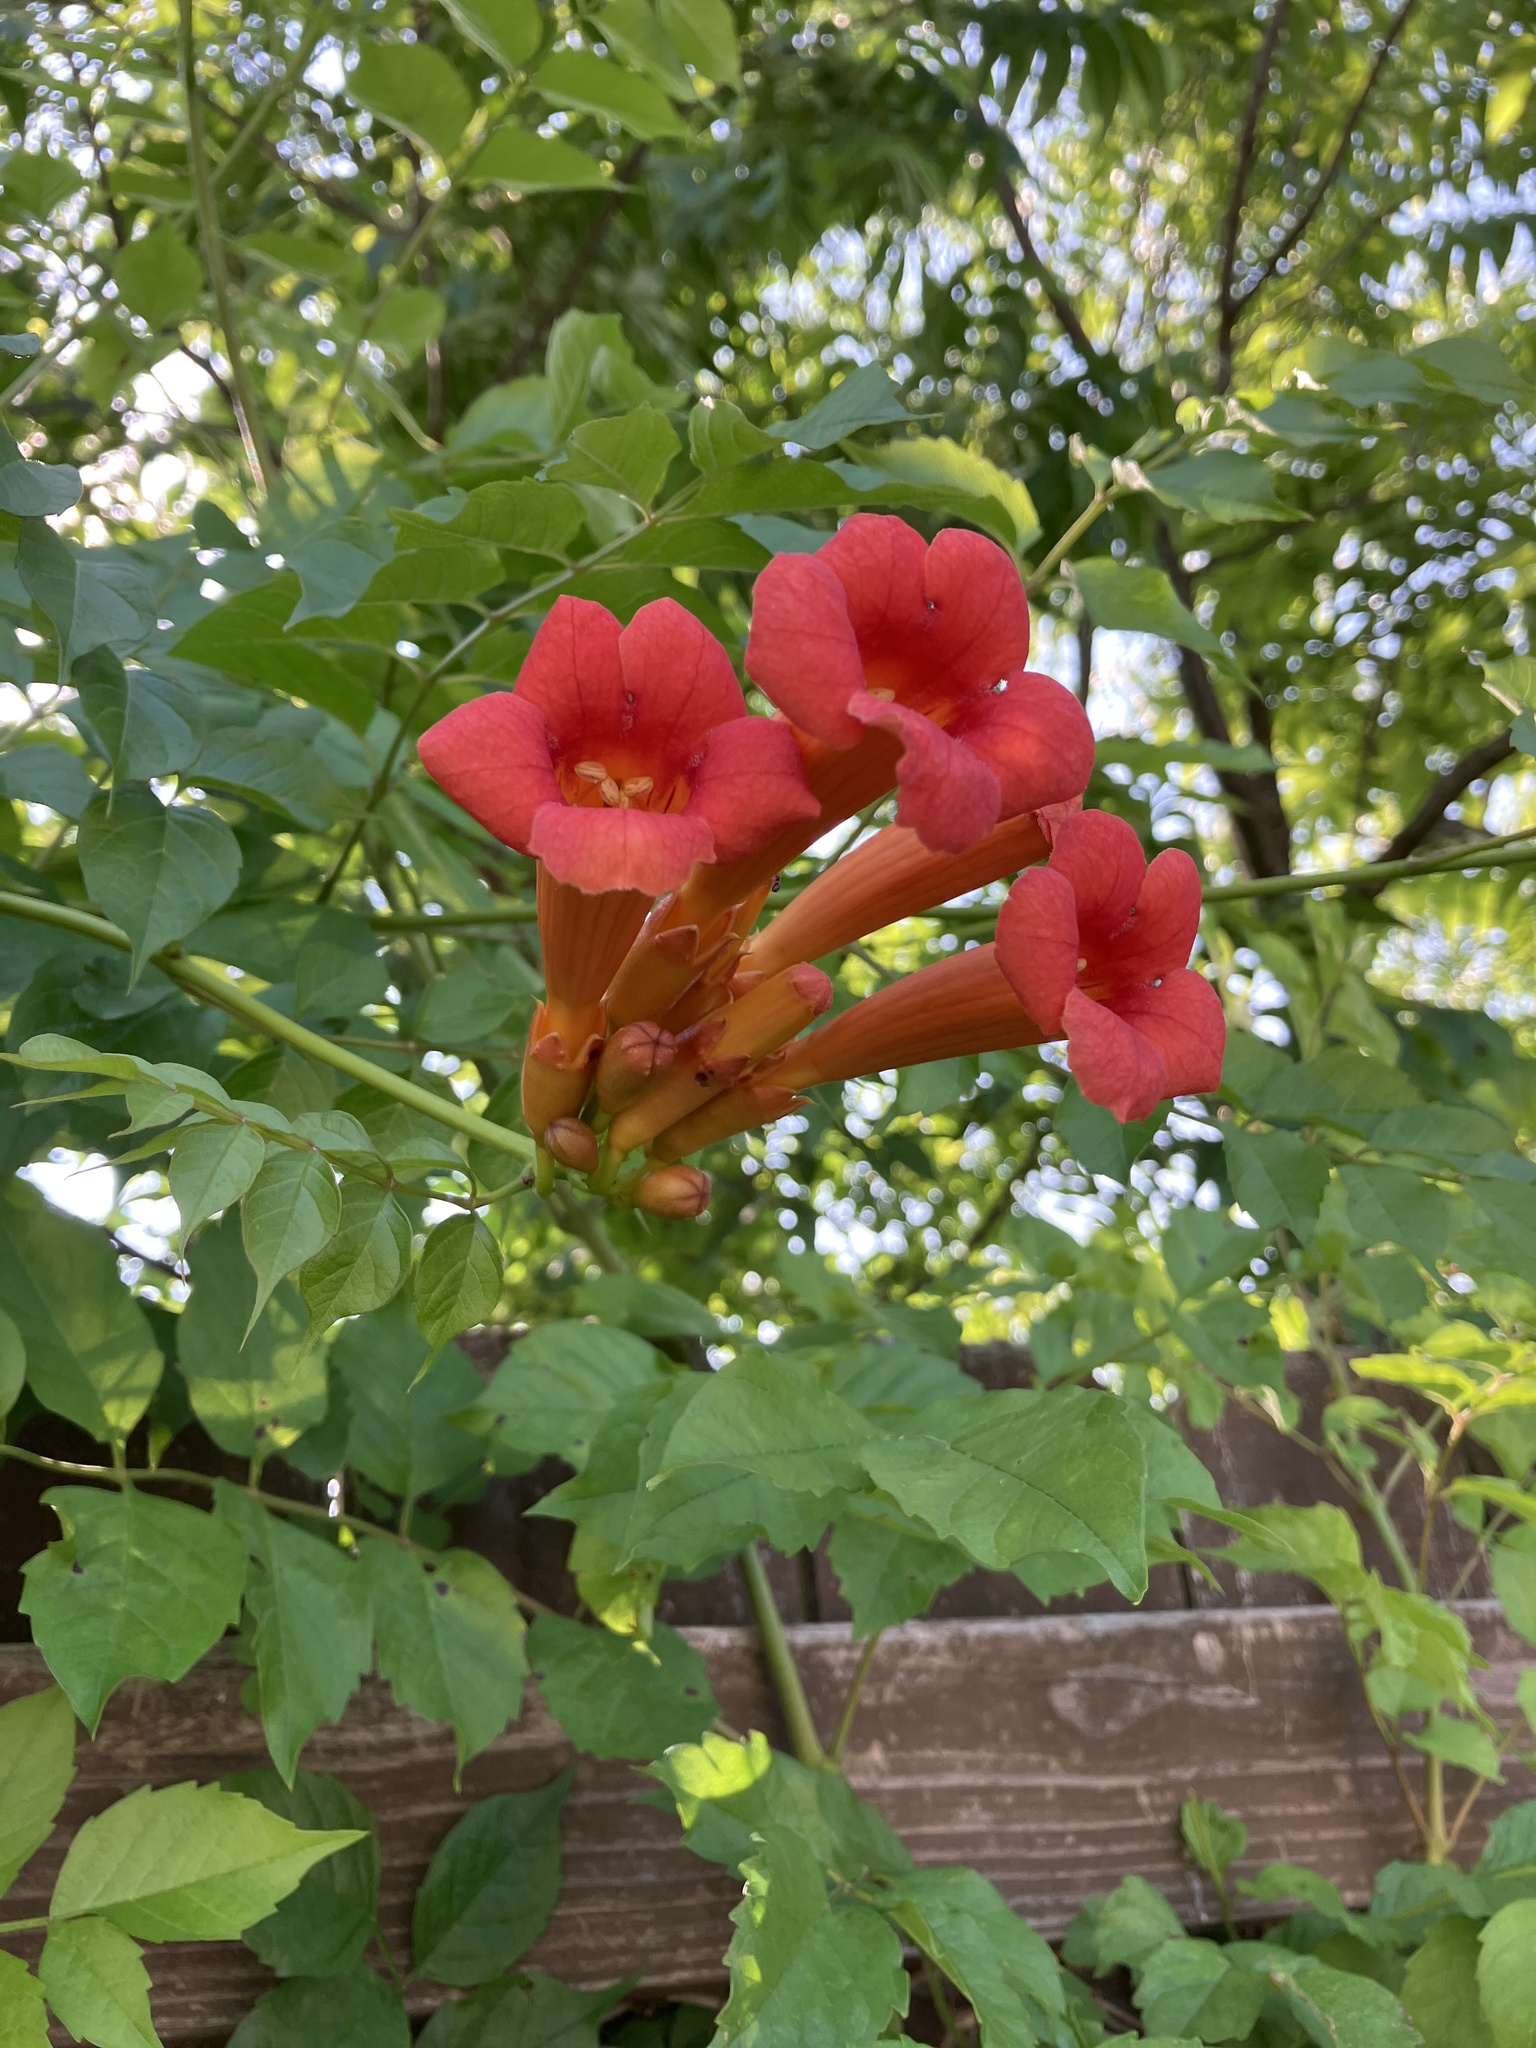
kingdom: Plantae
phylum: Tracheophyta
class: Magnoliopsida
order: Lamiales
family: Bignoniaceae
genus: Campsis
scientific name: Campsis radicans
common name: Trumpet-creeper
